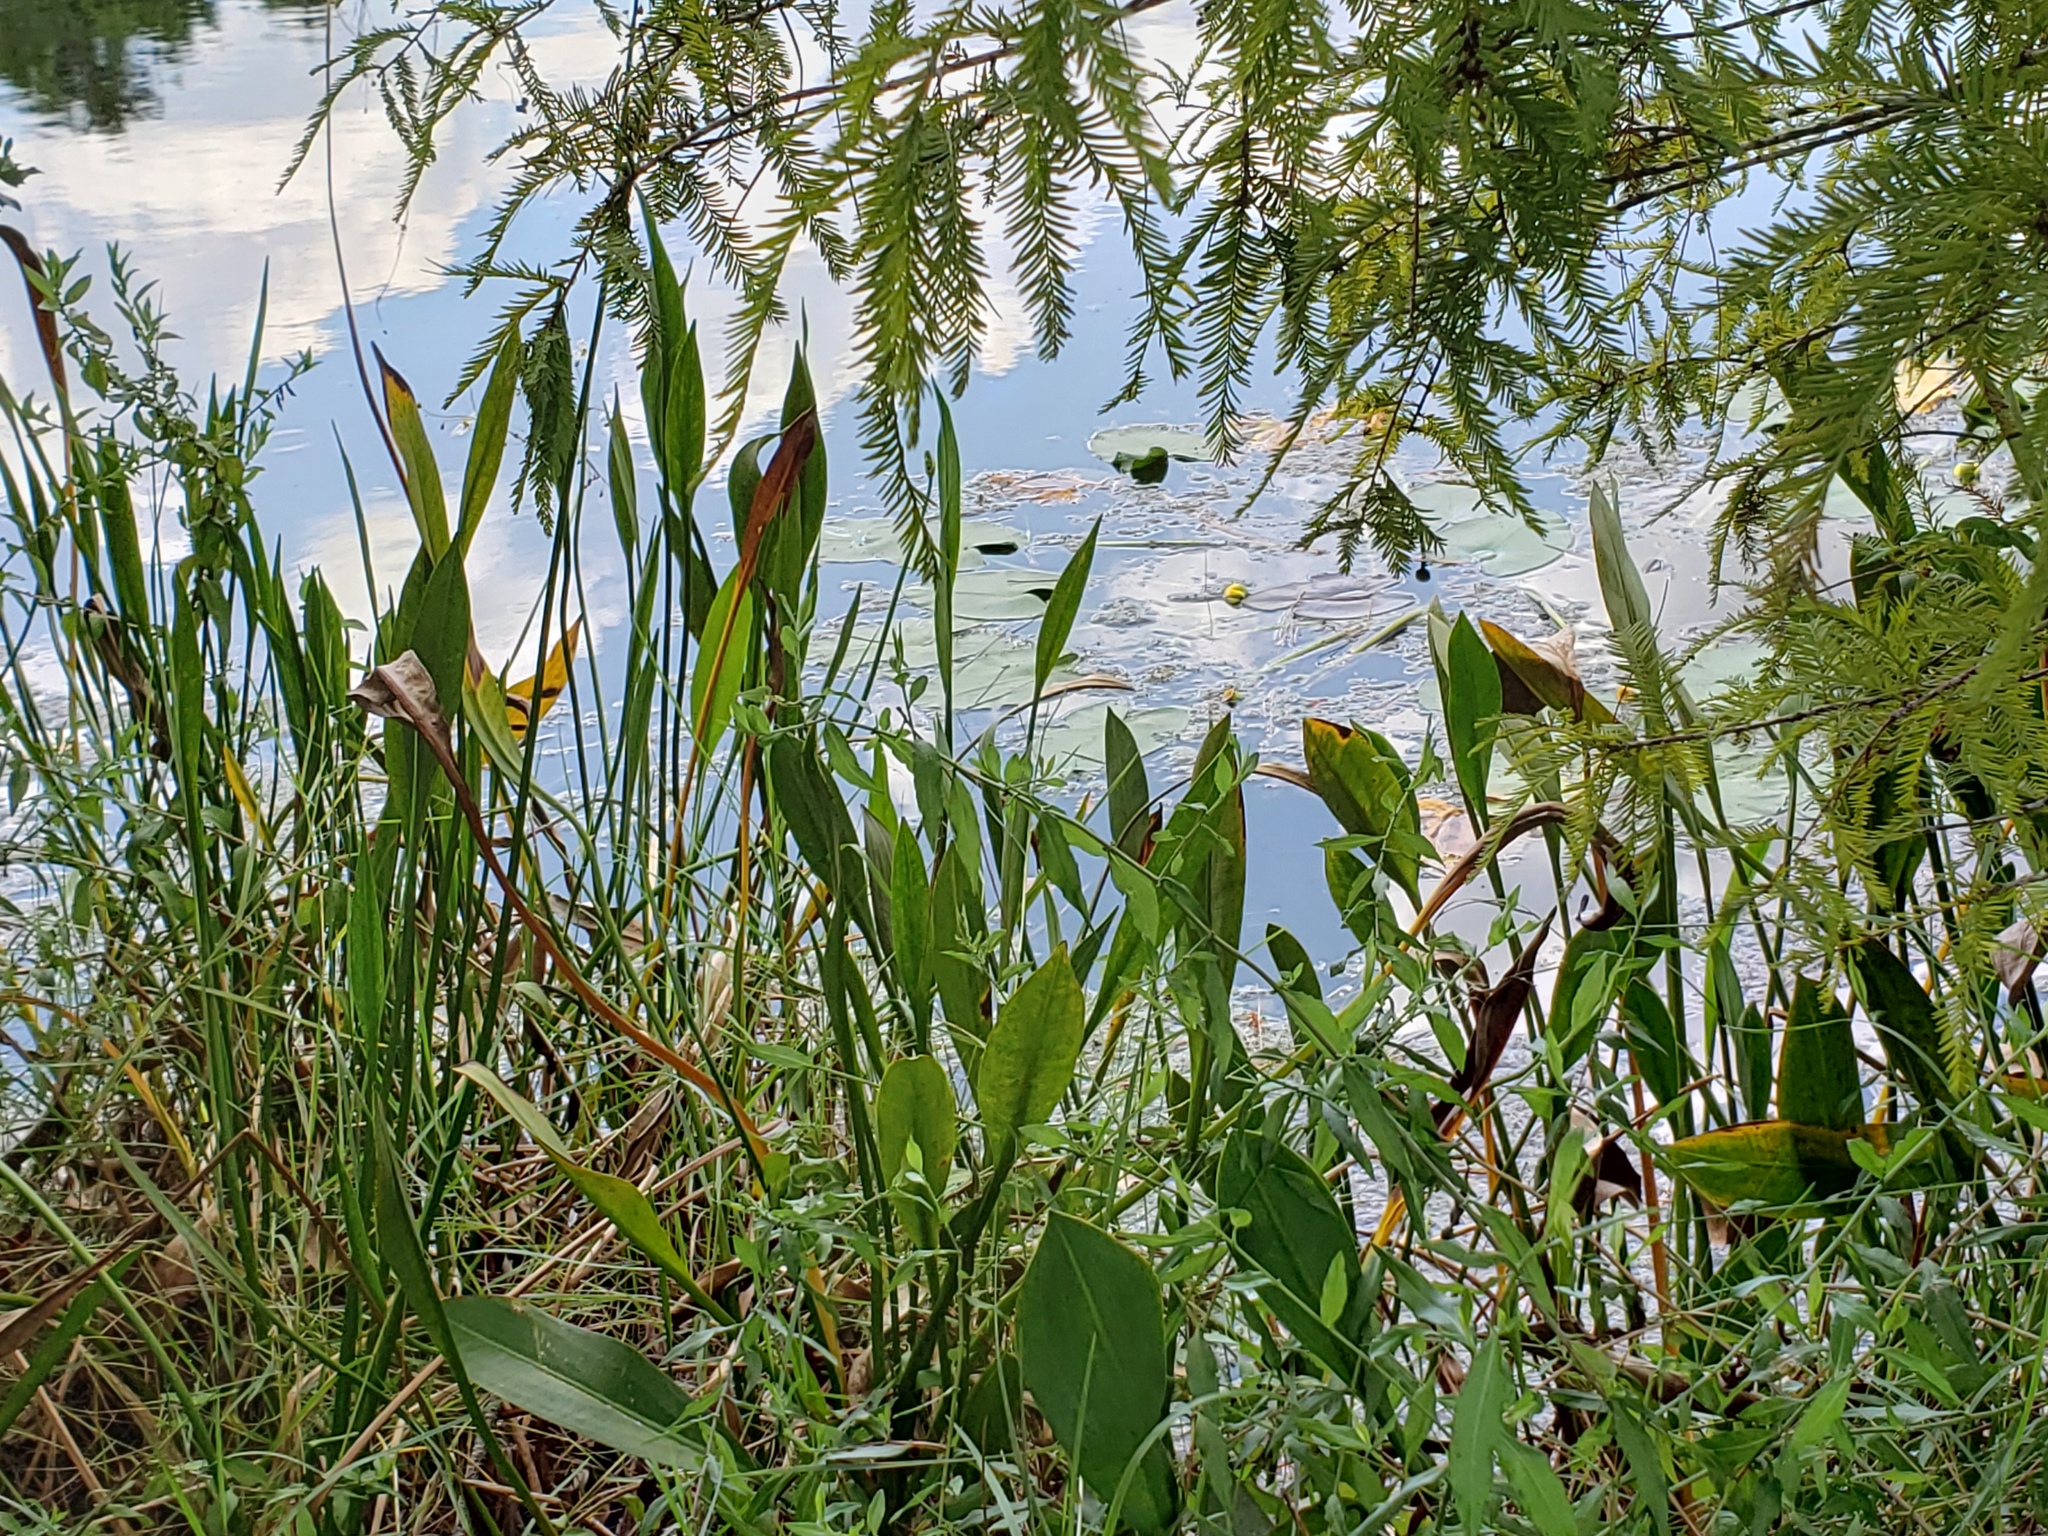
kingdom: Plantae
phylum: Tracheophyta
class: Liliopsida
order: Alismatales
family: Alismataceae
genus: Sagittaria
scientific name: Sagittaria lancifolia
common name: Lance-leaf arrowhead
